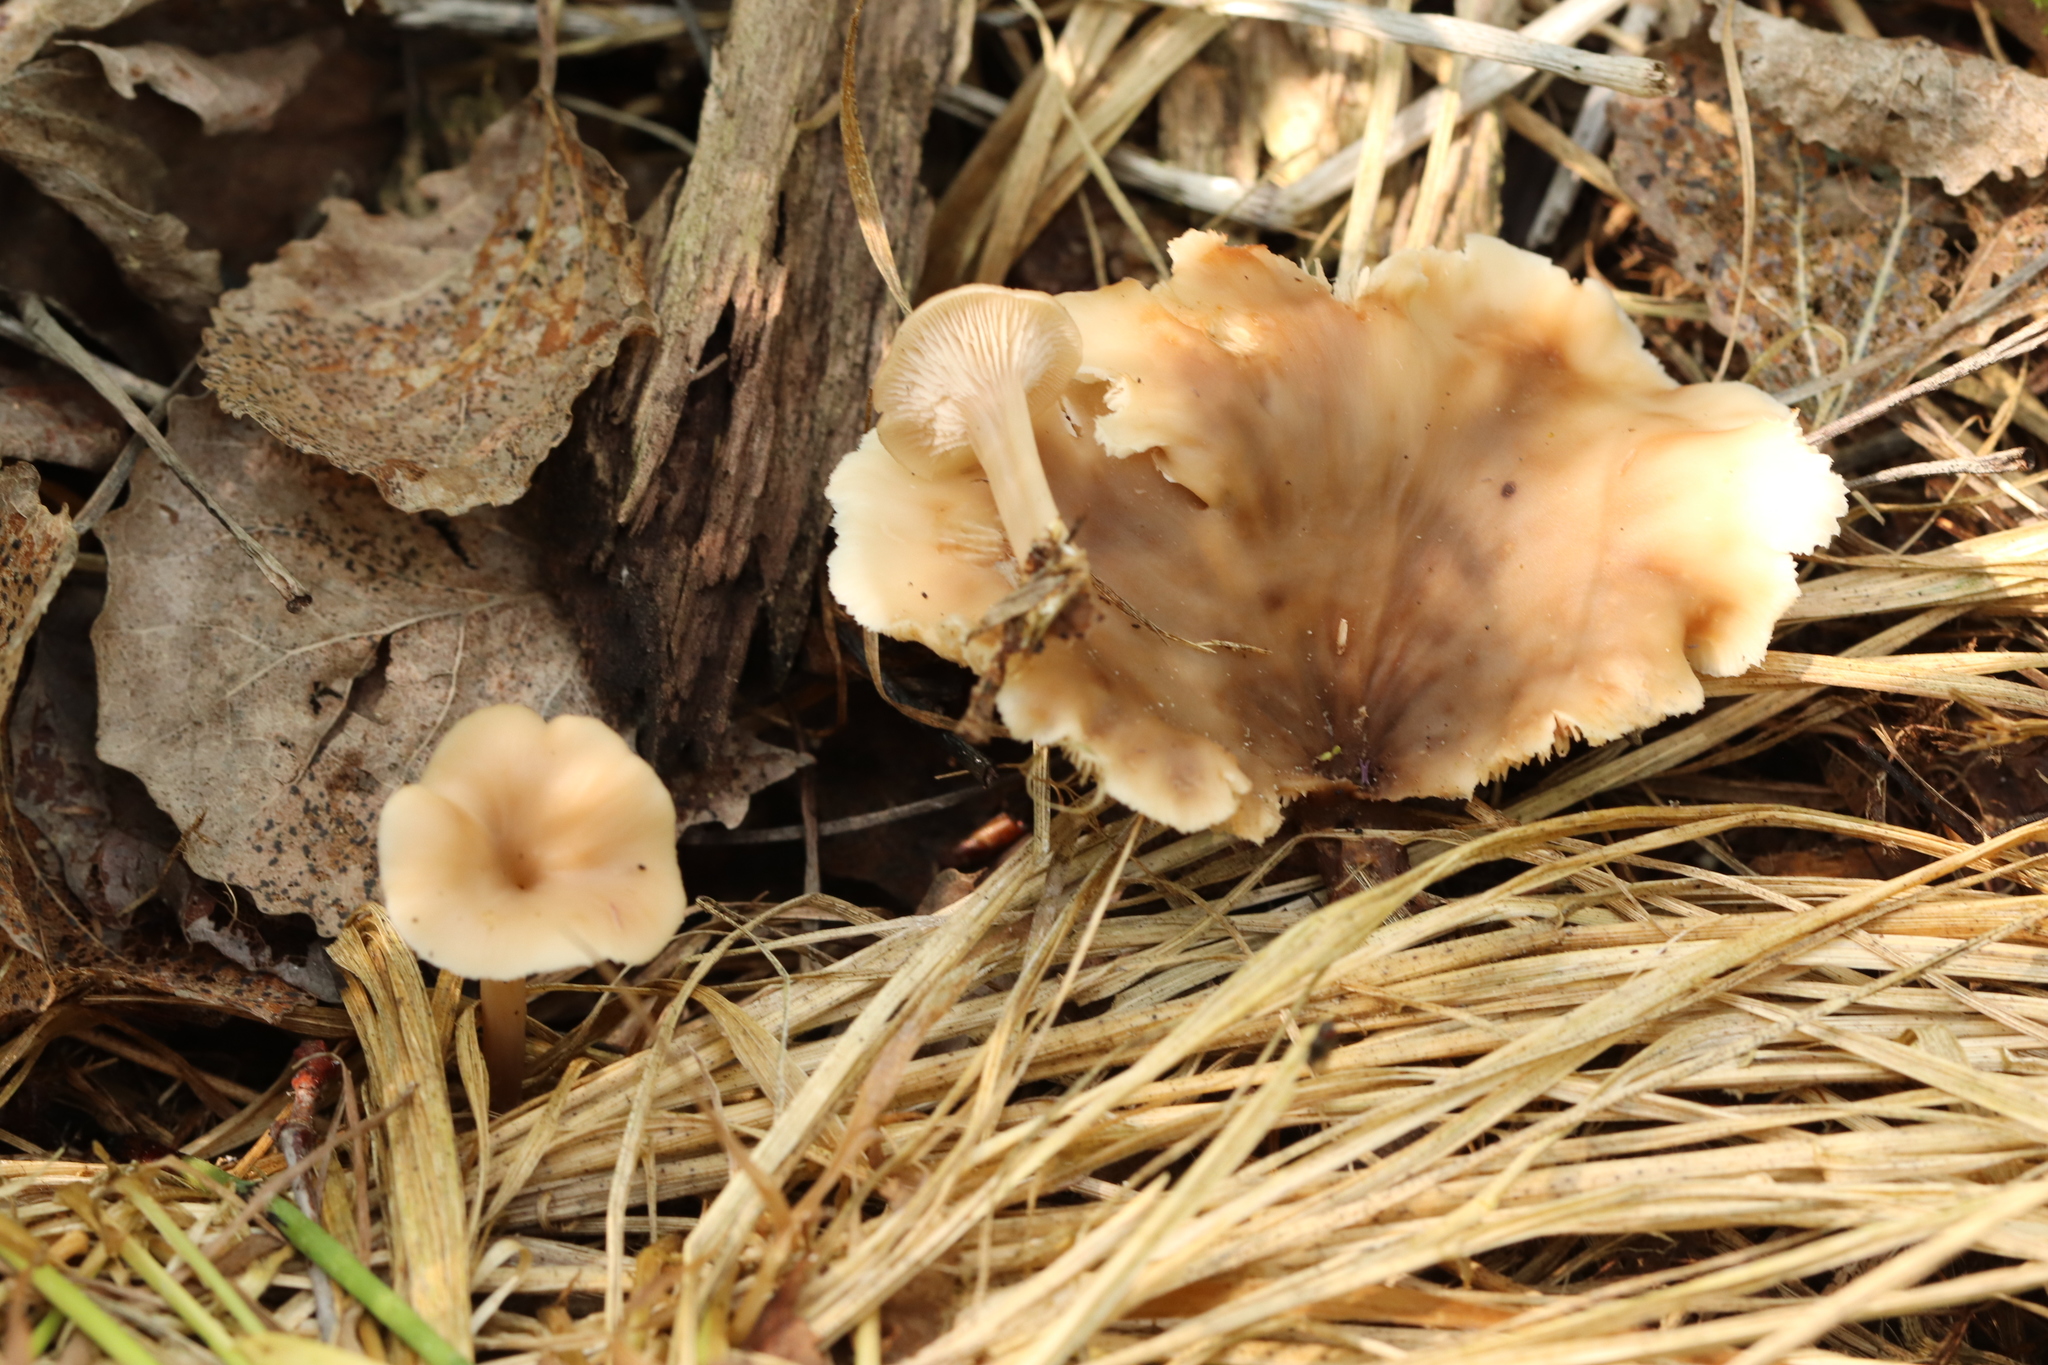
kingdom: Fungi
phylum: Basidiomycota
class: Agaricomycetes
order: Russulales
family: Auriscalpiaceae
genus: Lentinellus
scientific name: Lentinellus micheneri
